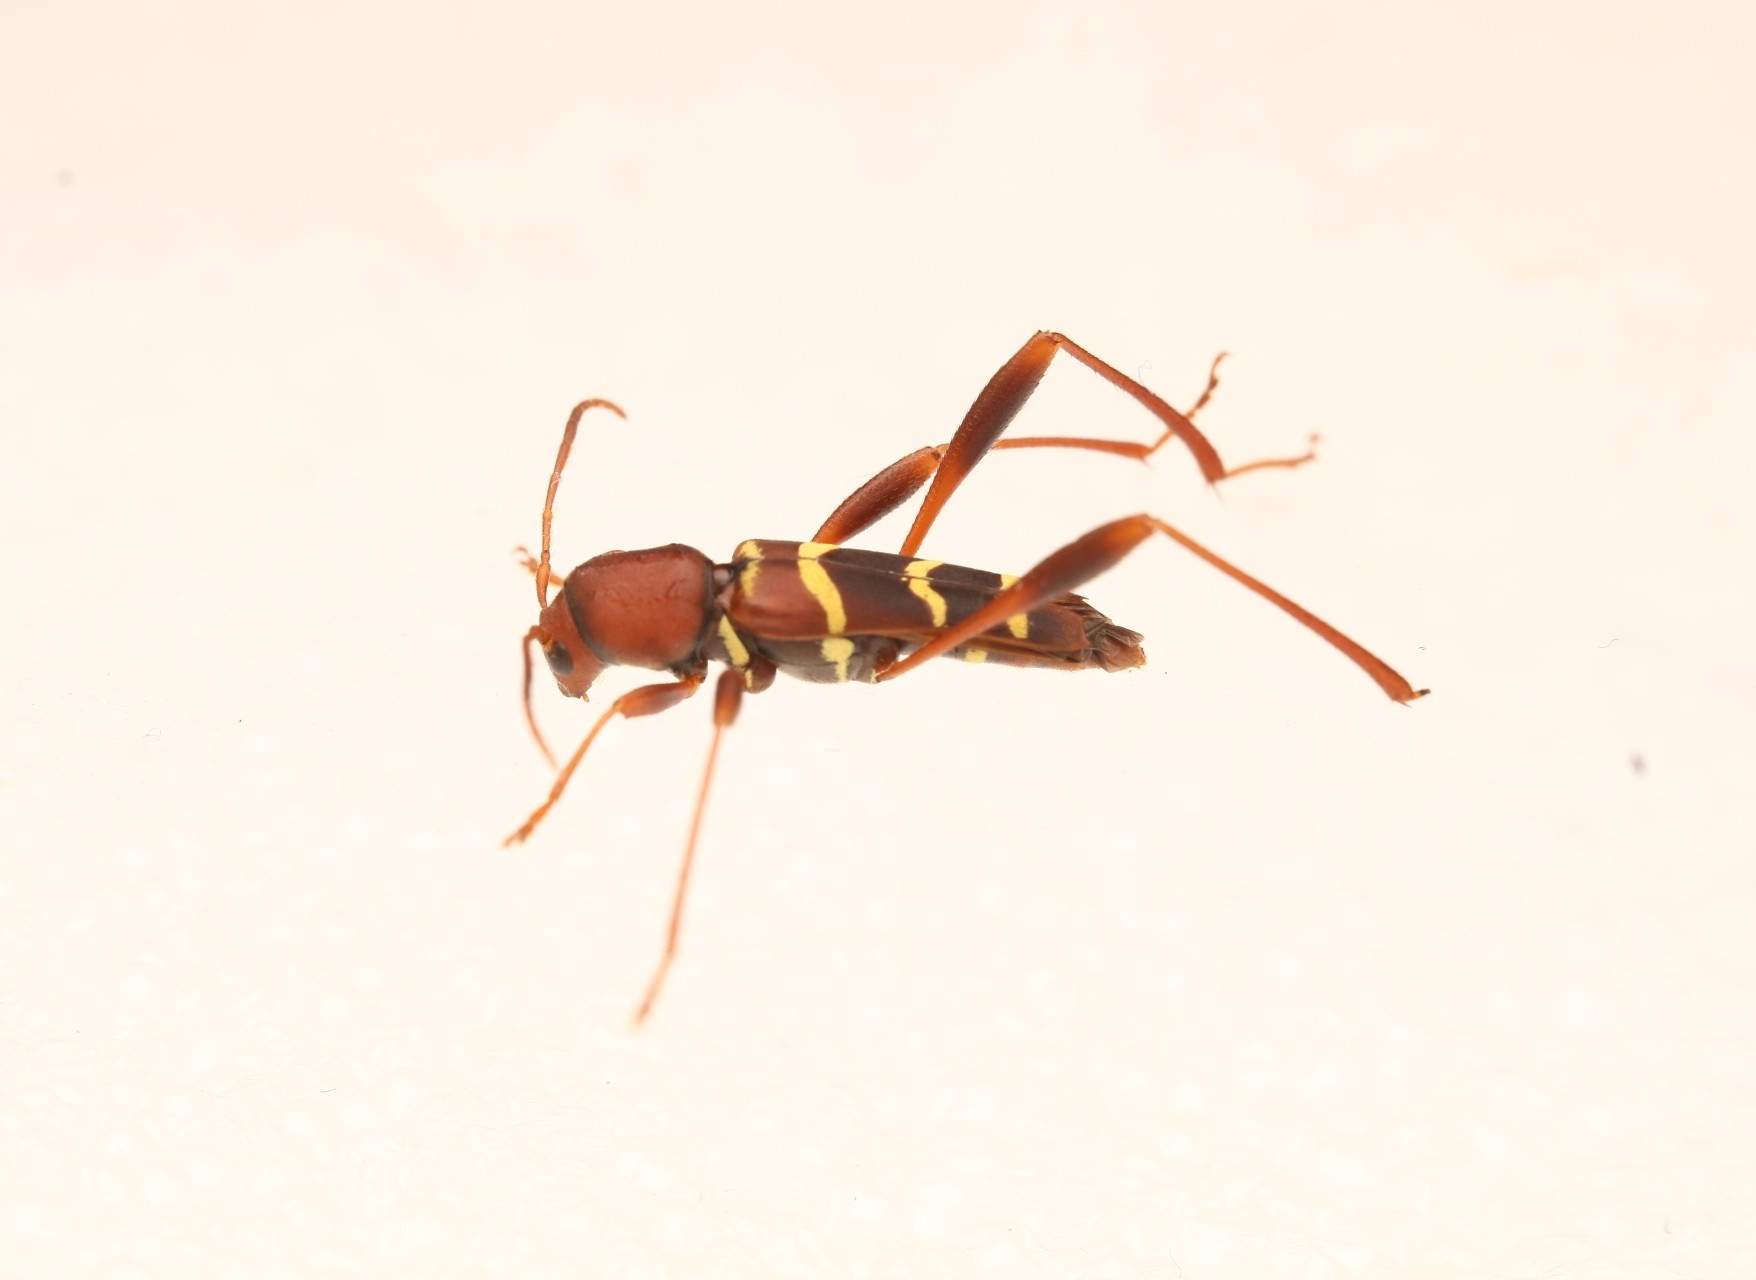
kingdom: Animalia
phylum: Arthropoda
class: Insecta
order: Coleoptera
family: Cerambycidae
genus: Neoclytus
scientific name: Neoclytus acuminatus
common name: Read-headed ash borer
